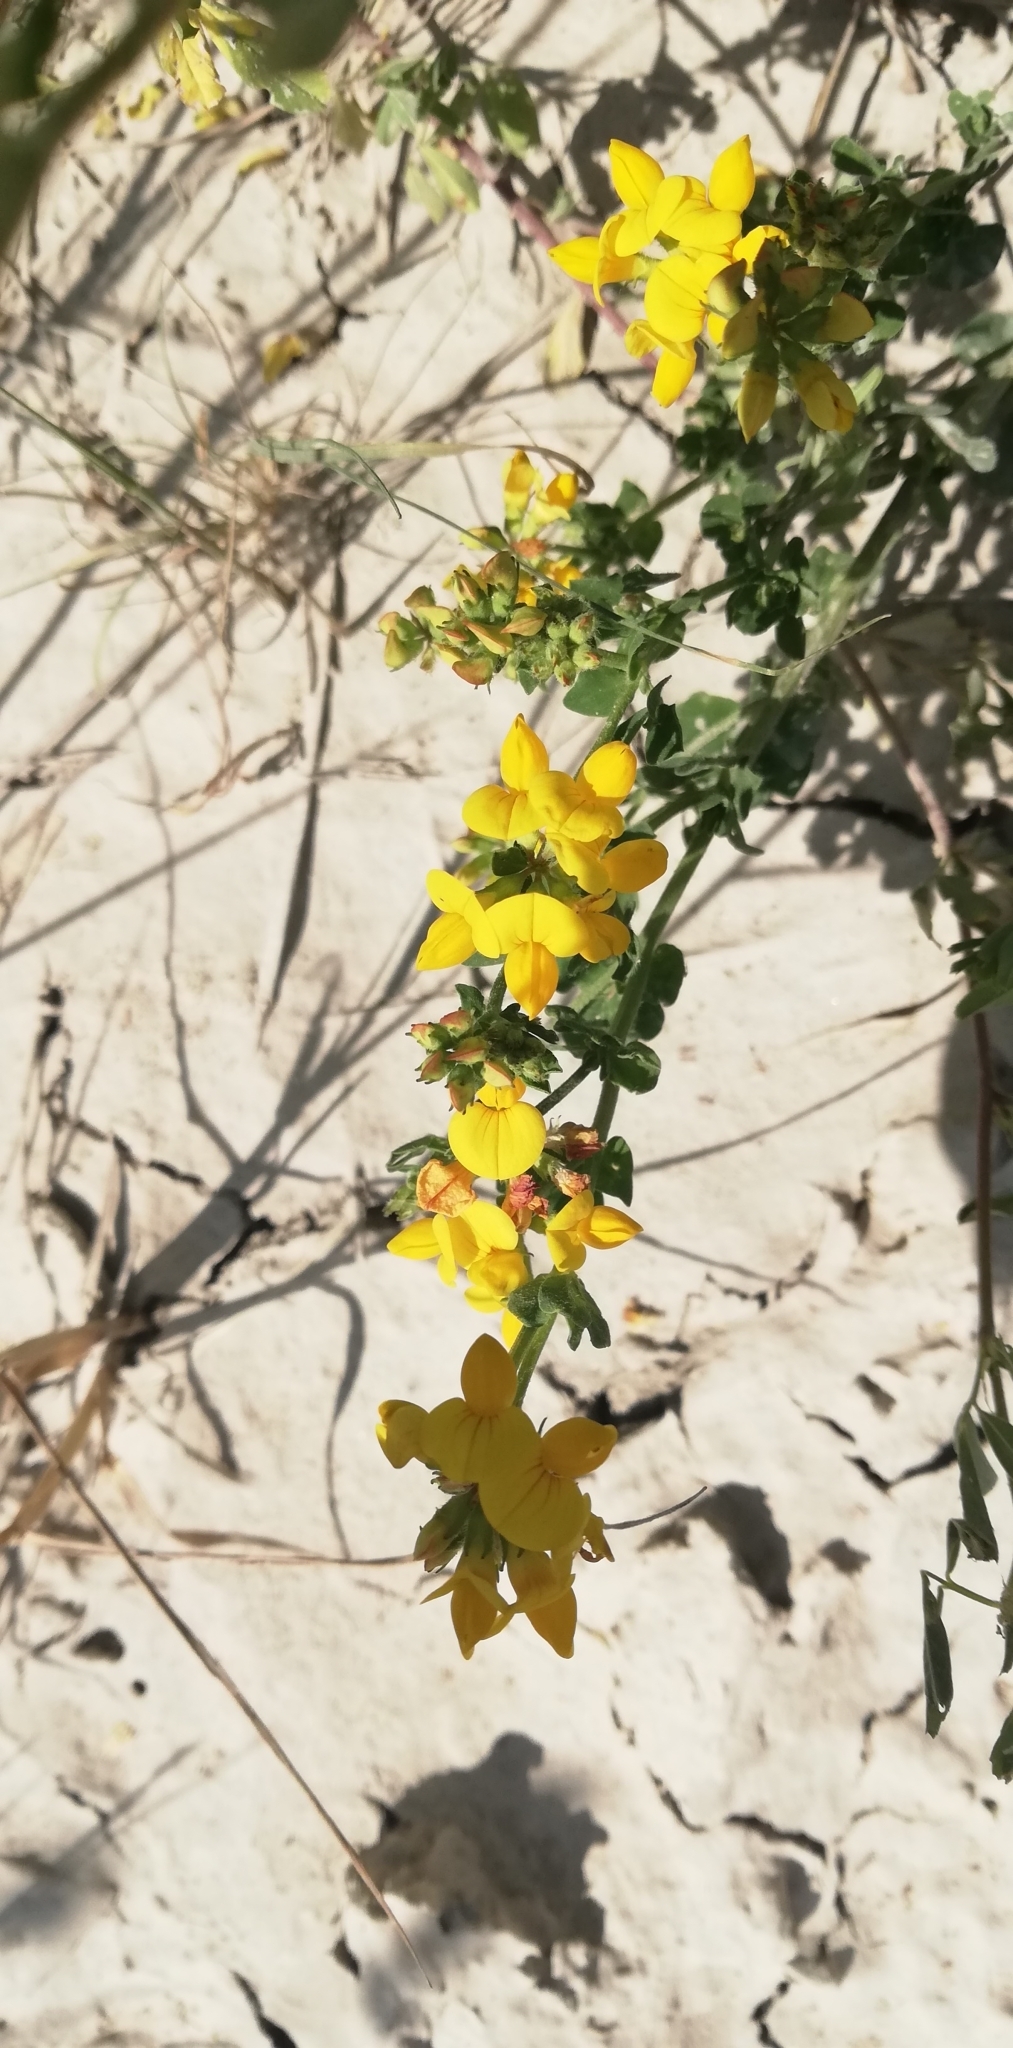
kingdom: Plantae
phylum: Tracheophyta
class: Magnoliopsida
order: Fabales
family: Fabaceae
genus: Lotus
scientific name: Lotus corniculatus
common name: Common bird's-foot-trefoil
